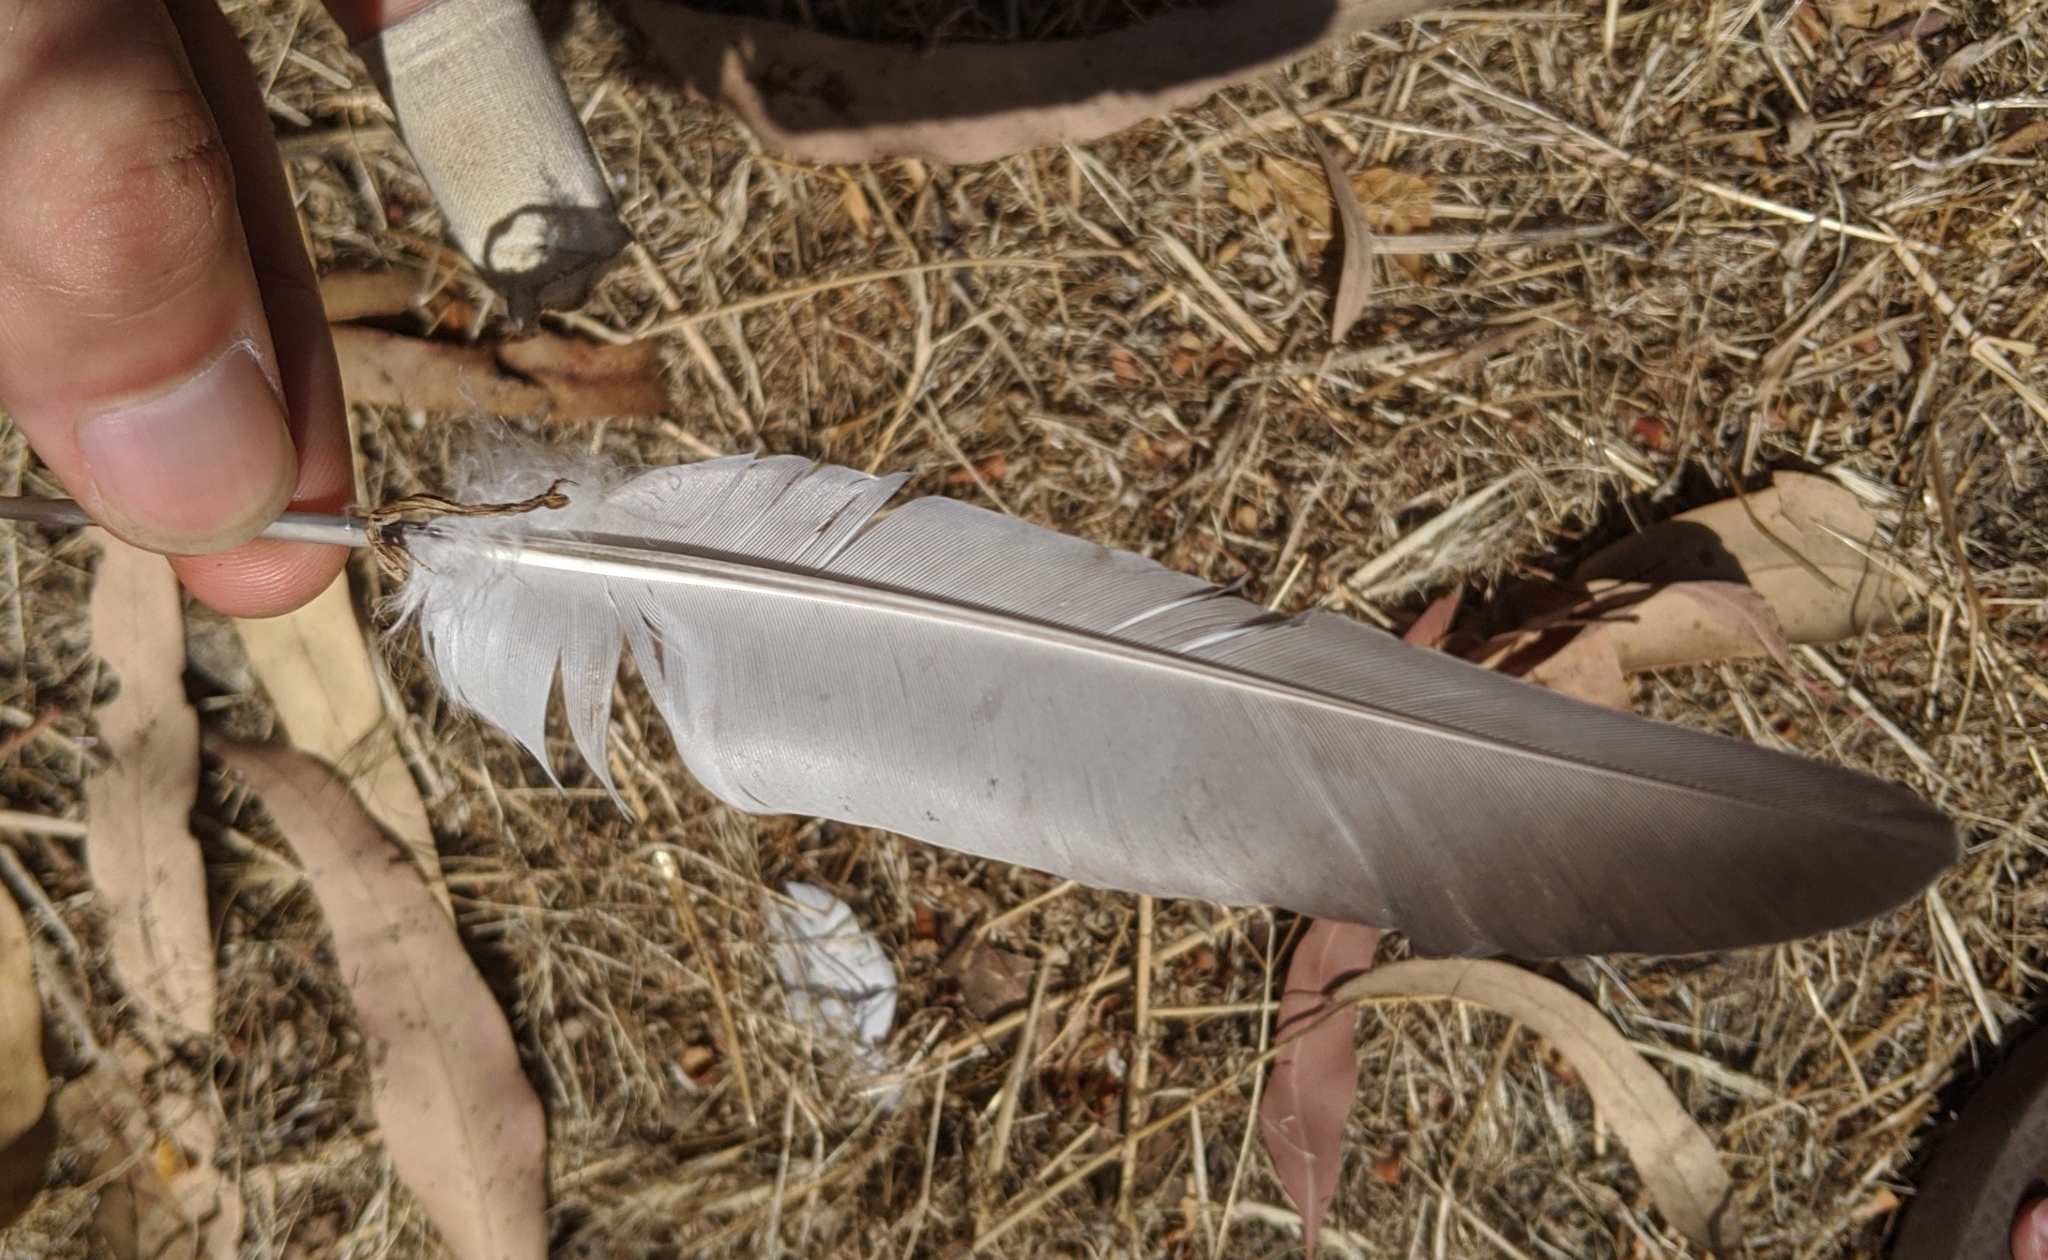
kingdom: Animalia
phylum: Chordata
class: Aves
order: Columbiformes
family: Columbidae
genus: Columba
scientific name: Columba livia
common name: Rock pigeon
